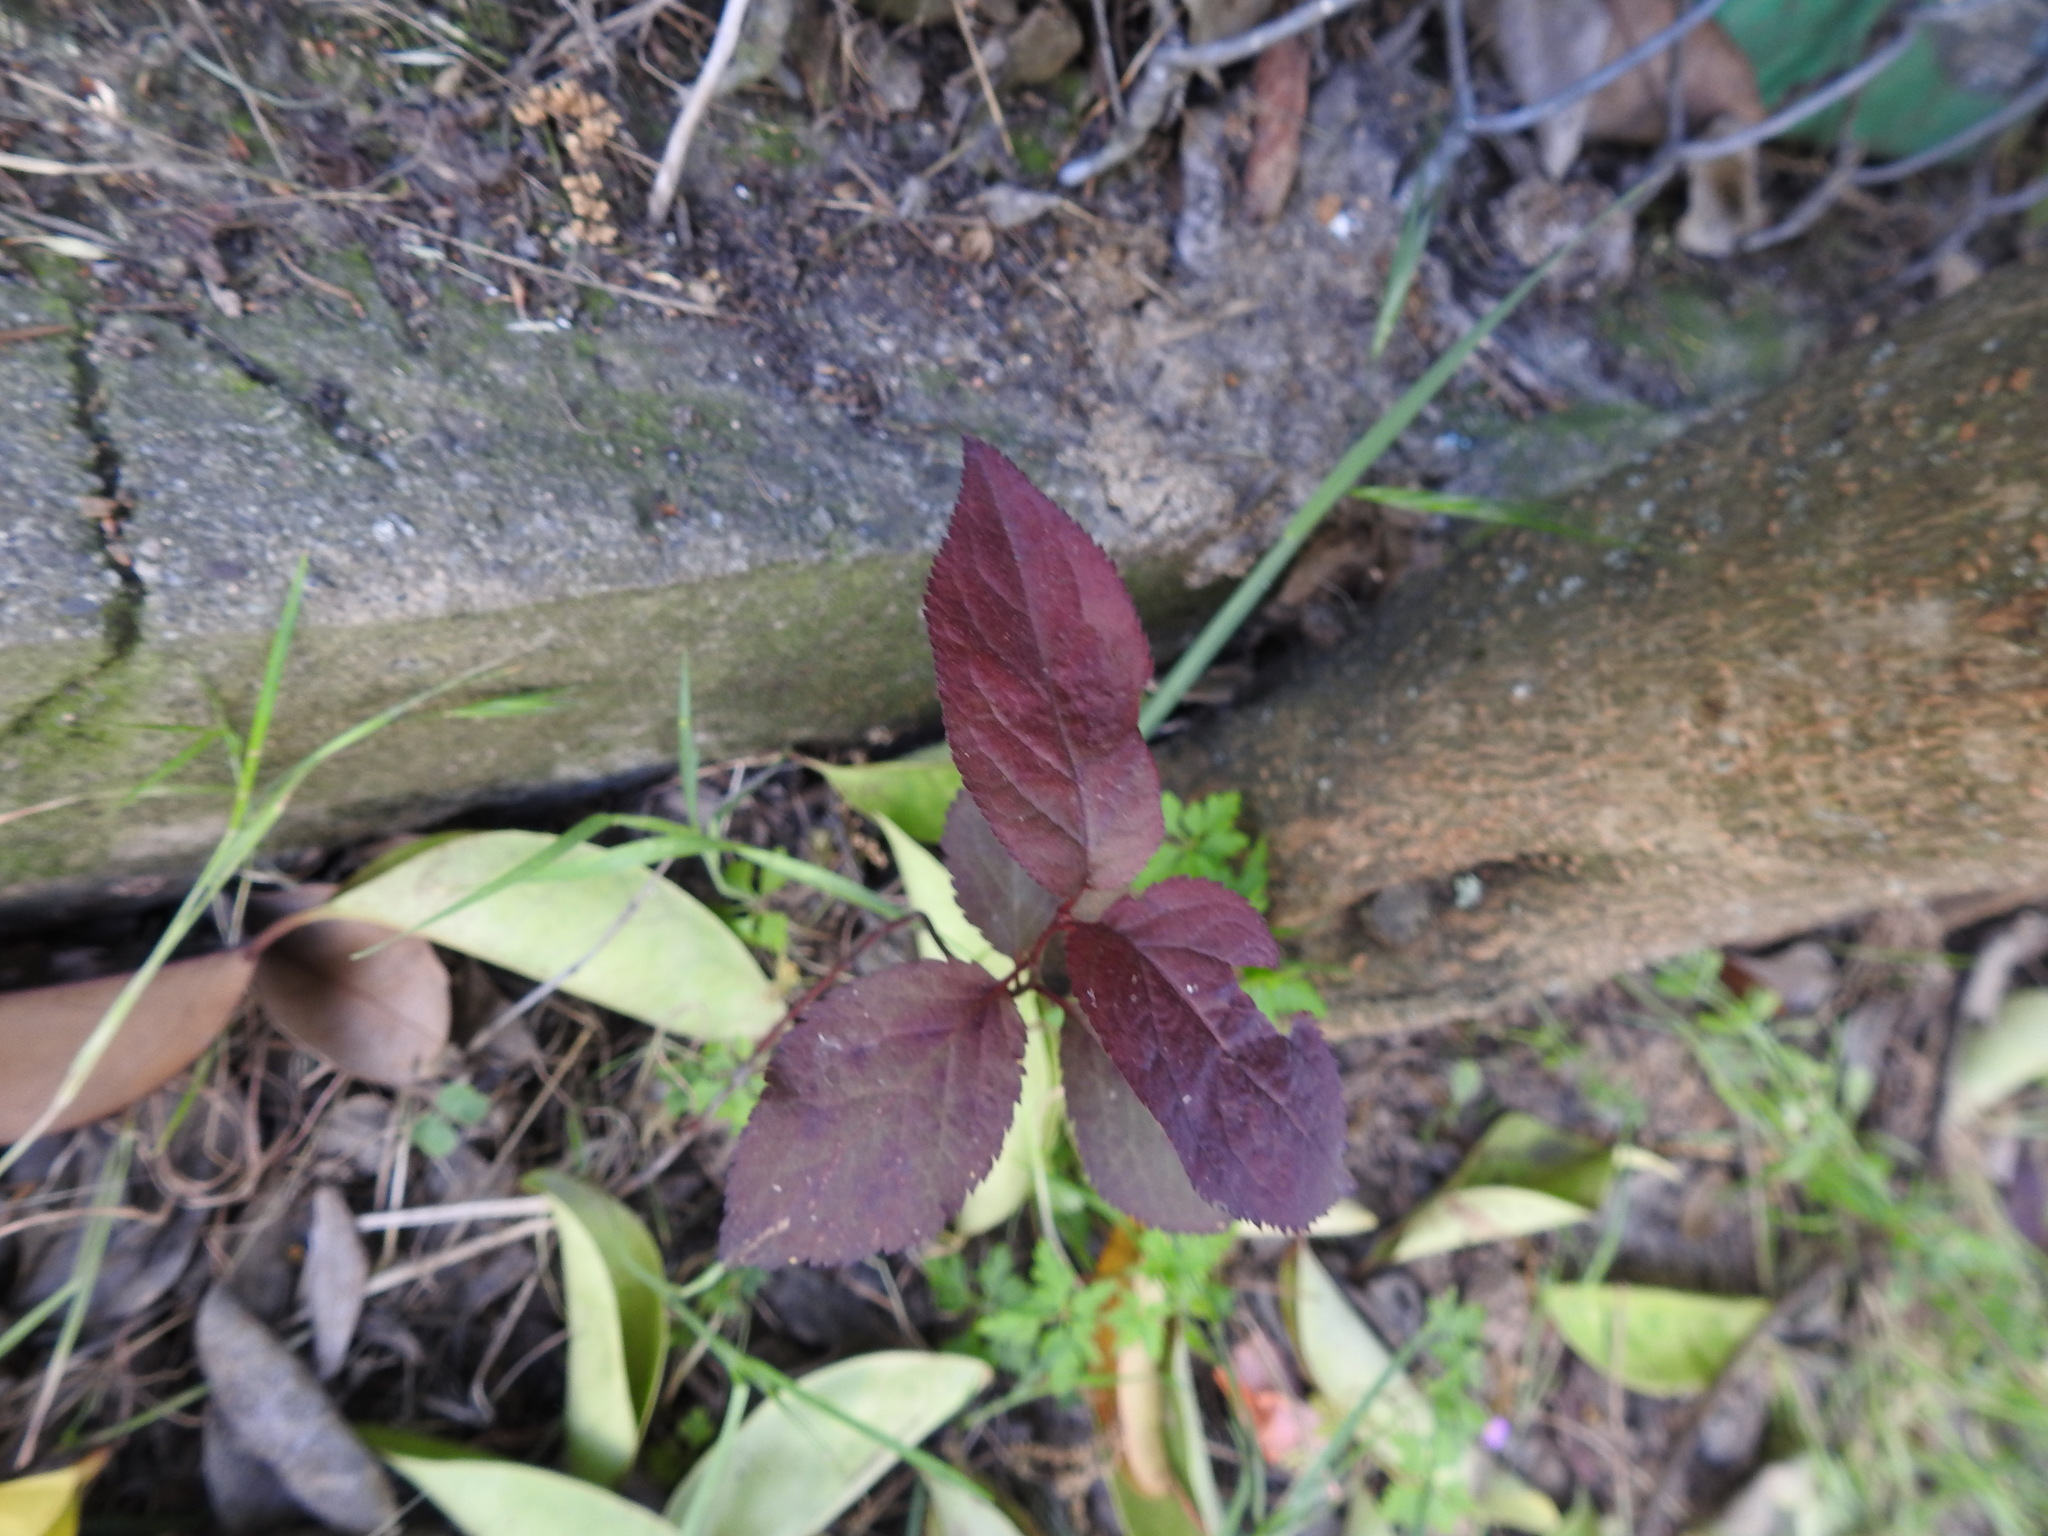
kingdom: Plantae
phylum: Tracheophyta
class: Magnoliopsida
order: Rosales
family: Rosaceae
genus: Prunus
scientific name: Prunus cerasifera
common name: Cherry plum
